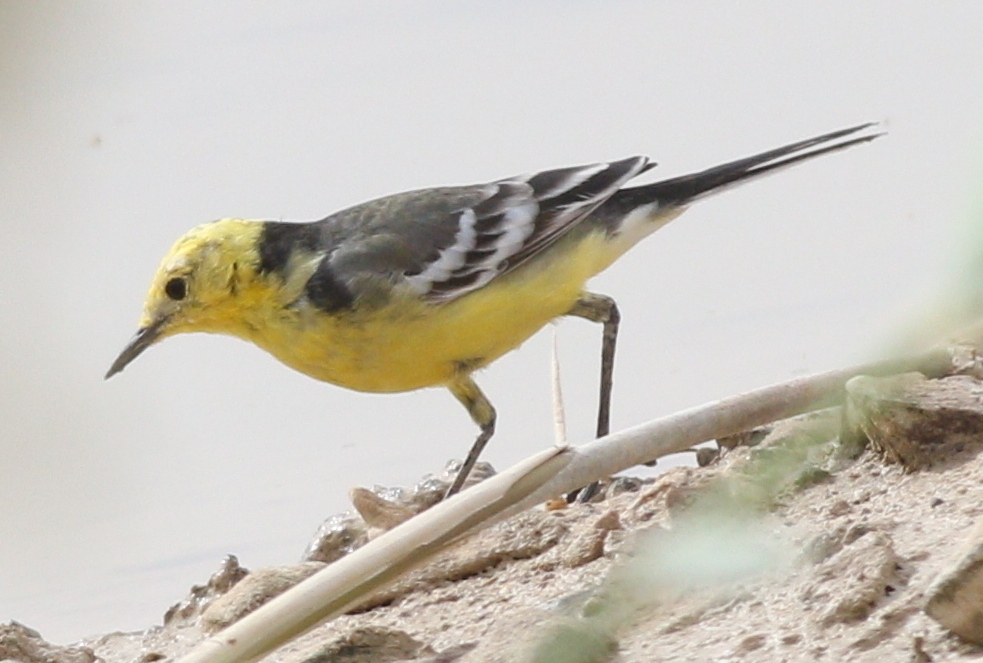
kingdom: Animalia
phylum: Chordata
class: Aves
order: Passeriformes
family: Motacillidae
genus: Motacilla
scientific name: Motacilla citreola
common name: Citrine wagtail
